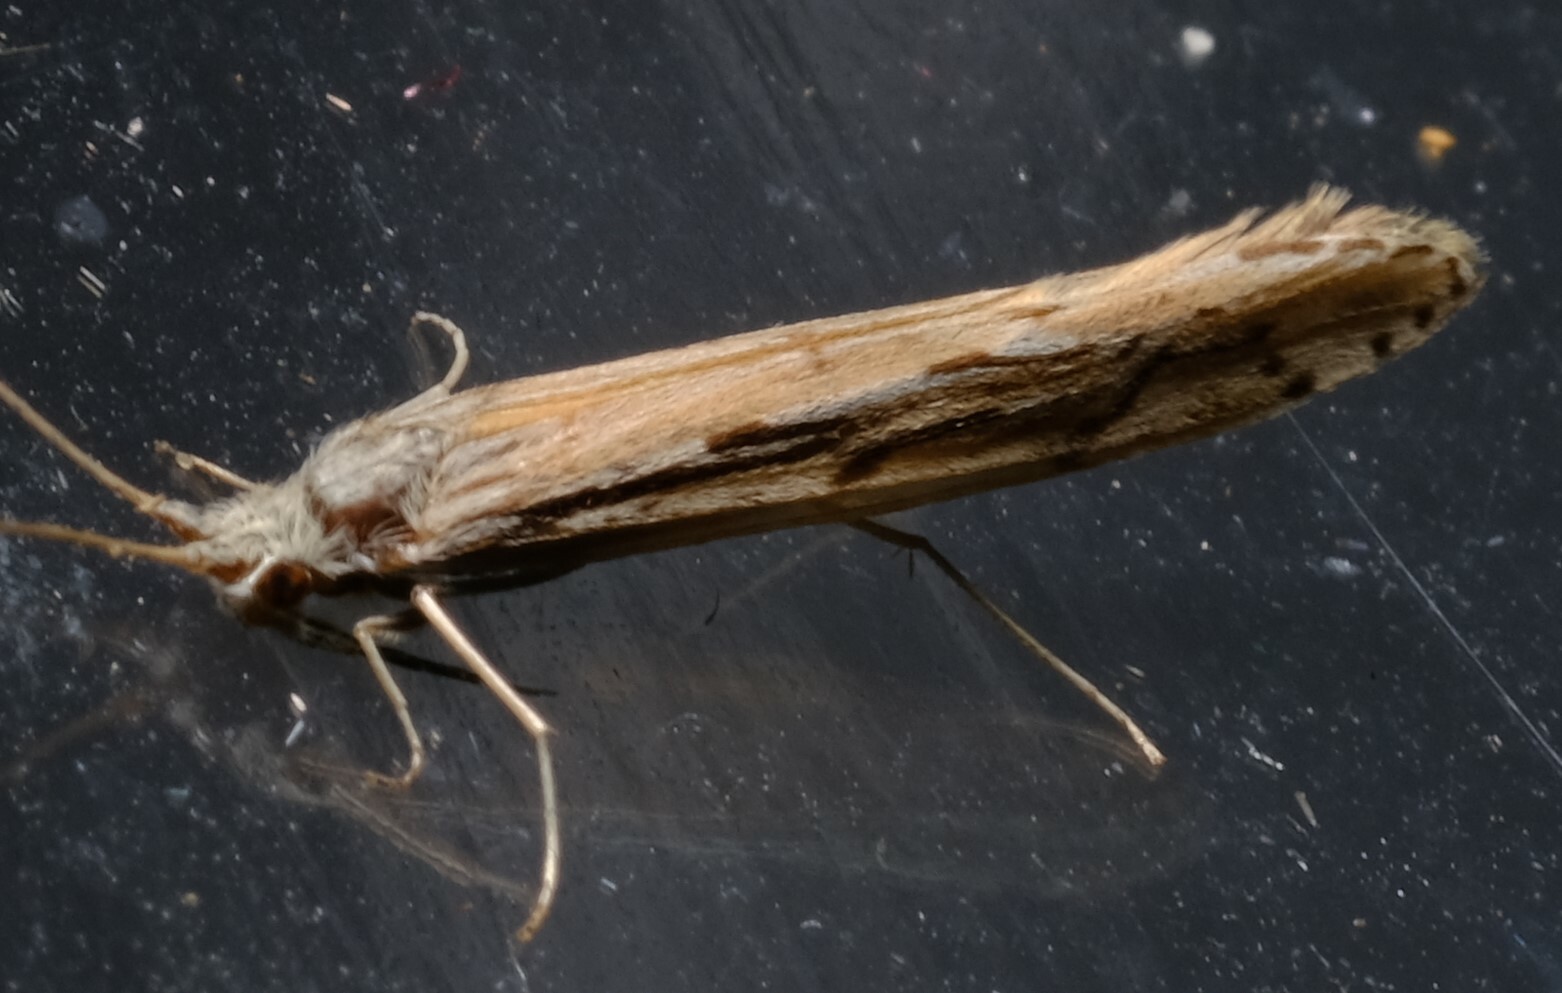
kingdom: Animalia
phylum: Arthropoda
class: Insecta
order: Trichoptera
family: Leptoceridae
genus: Oecetis
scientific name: Oecetis inscripta
